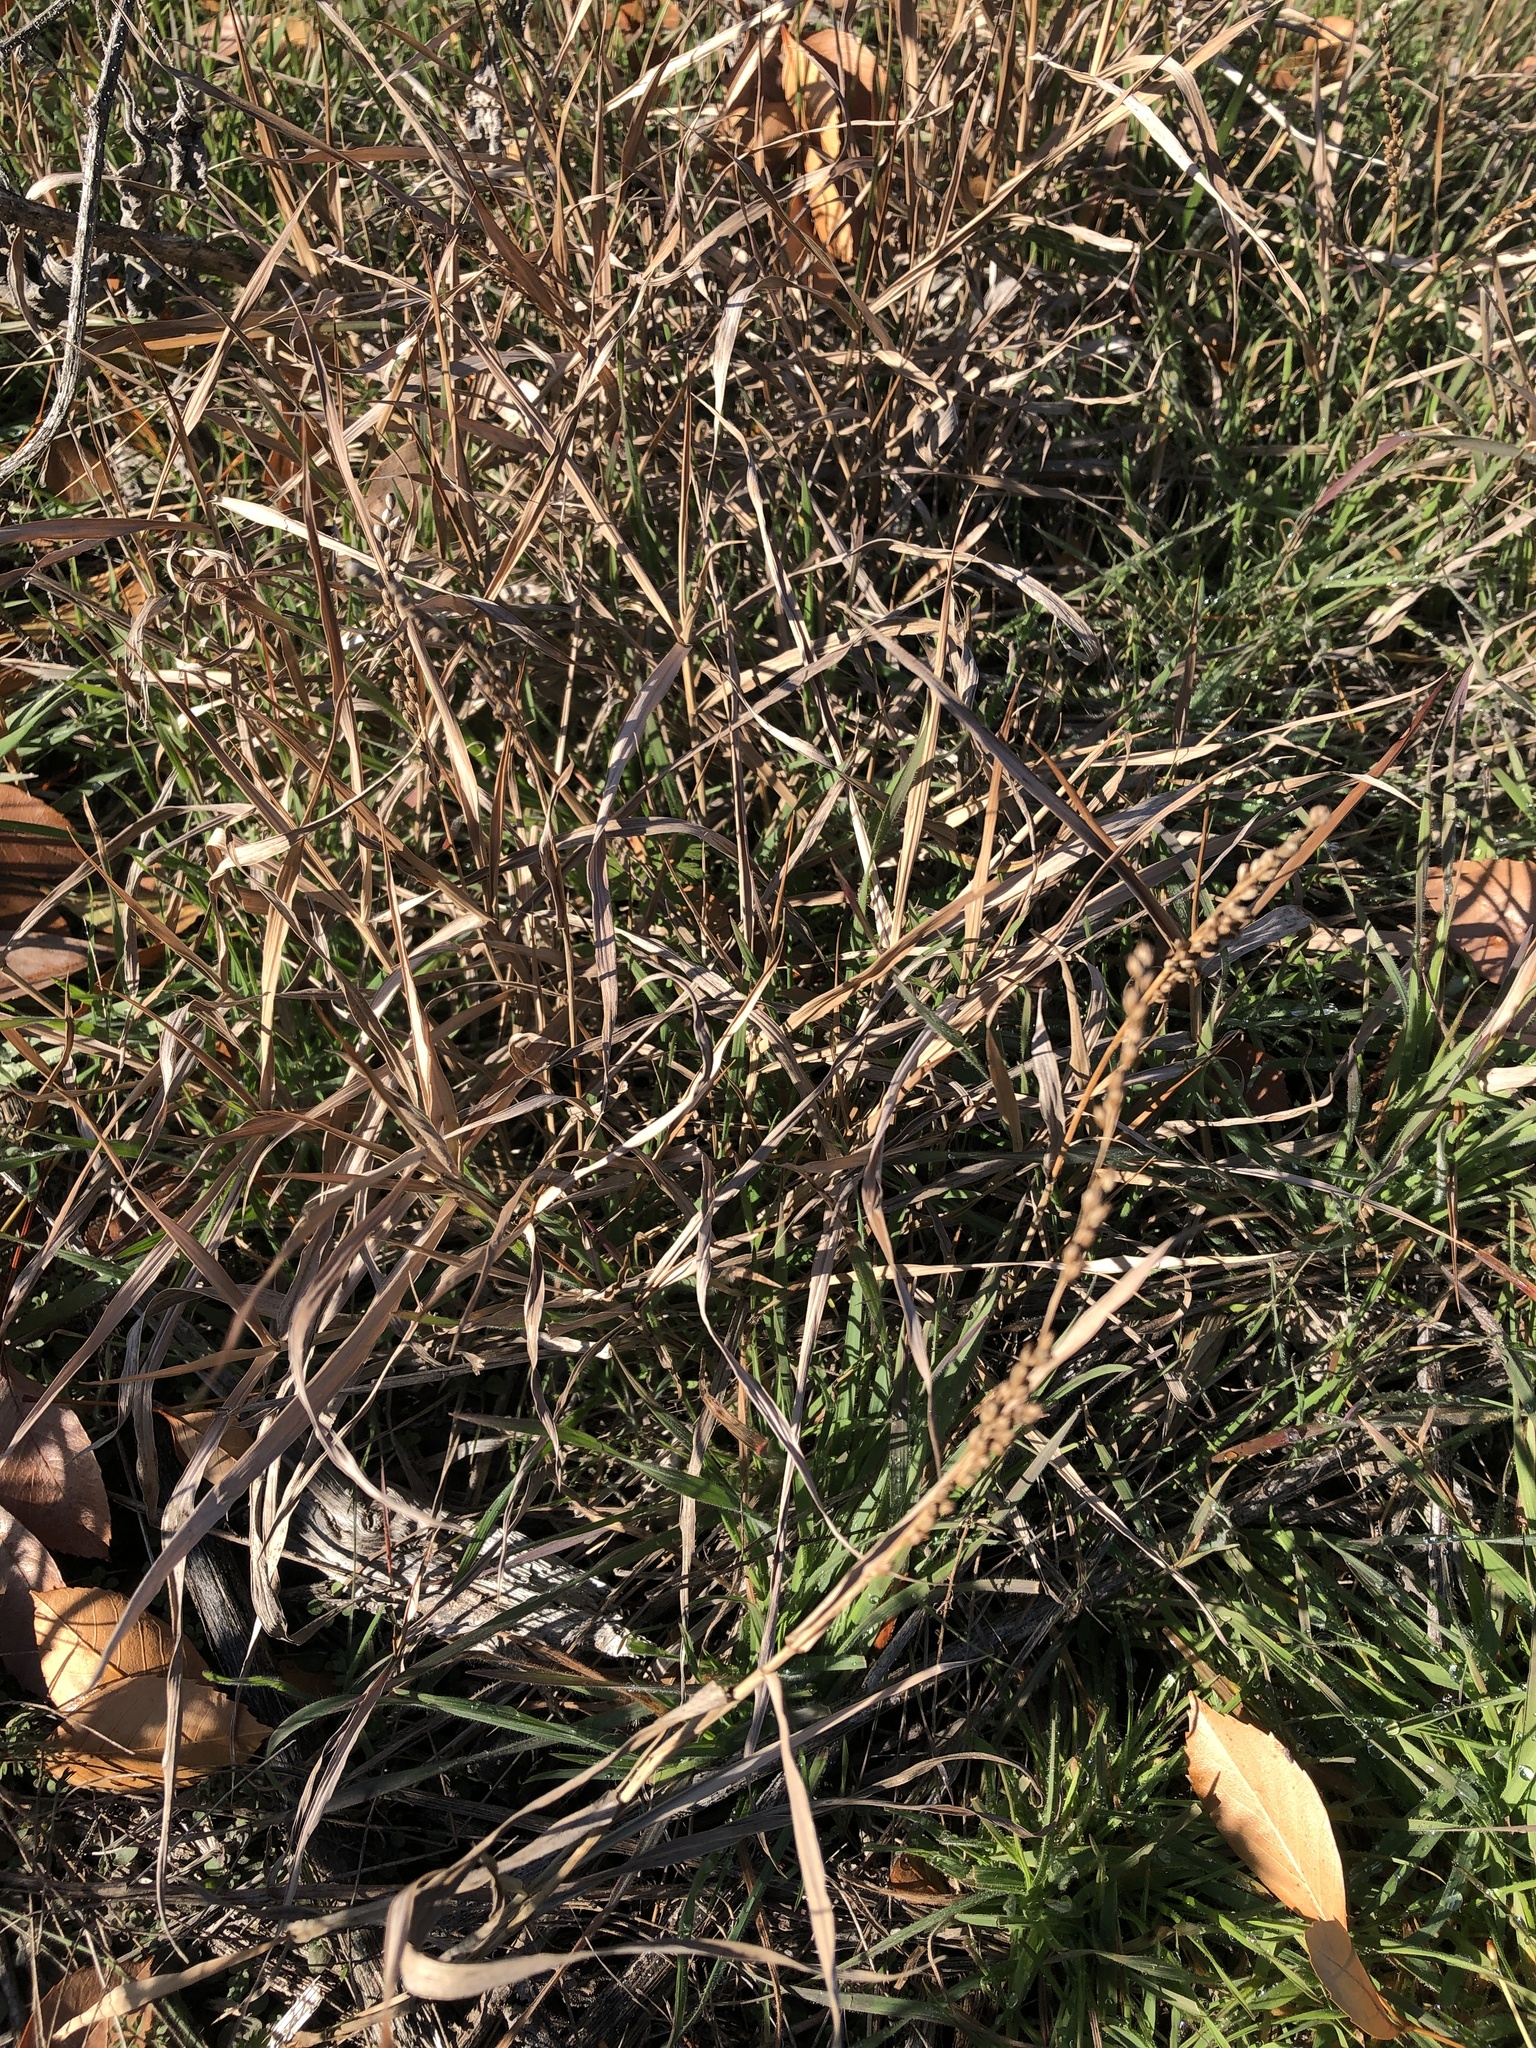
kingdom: Plantae
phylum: Tracheophyta
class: Liliopsida
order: Poales
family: Poaceae
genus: Hopia
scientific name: Hopia obtusa
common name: Vine-mesquite
